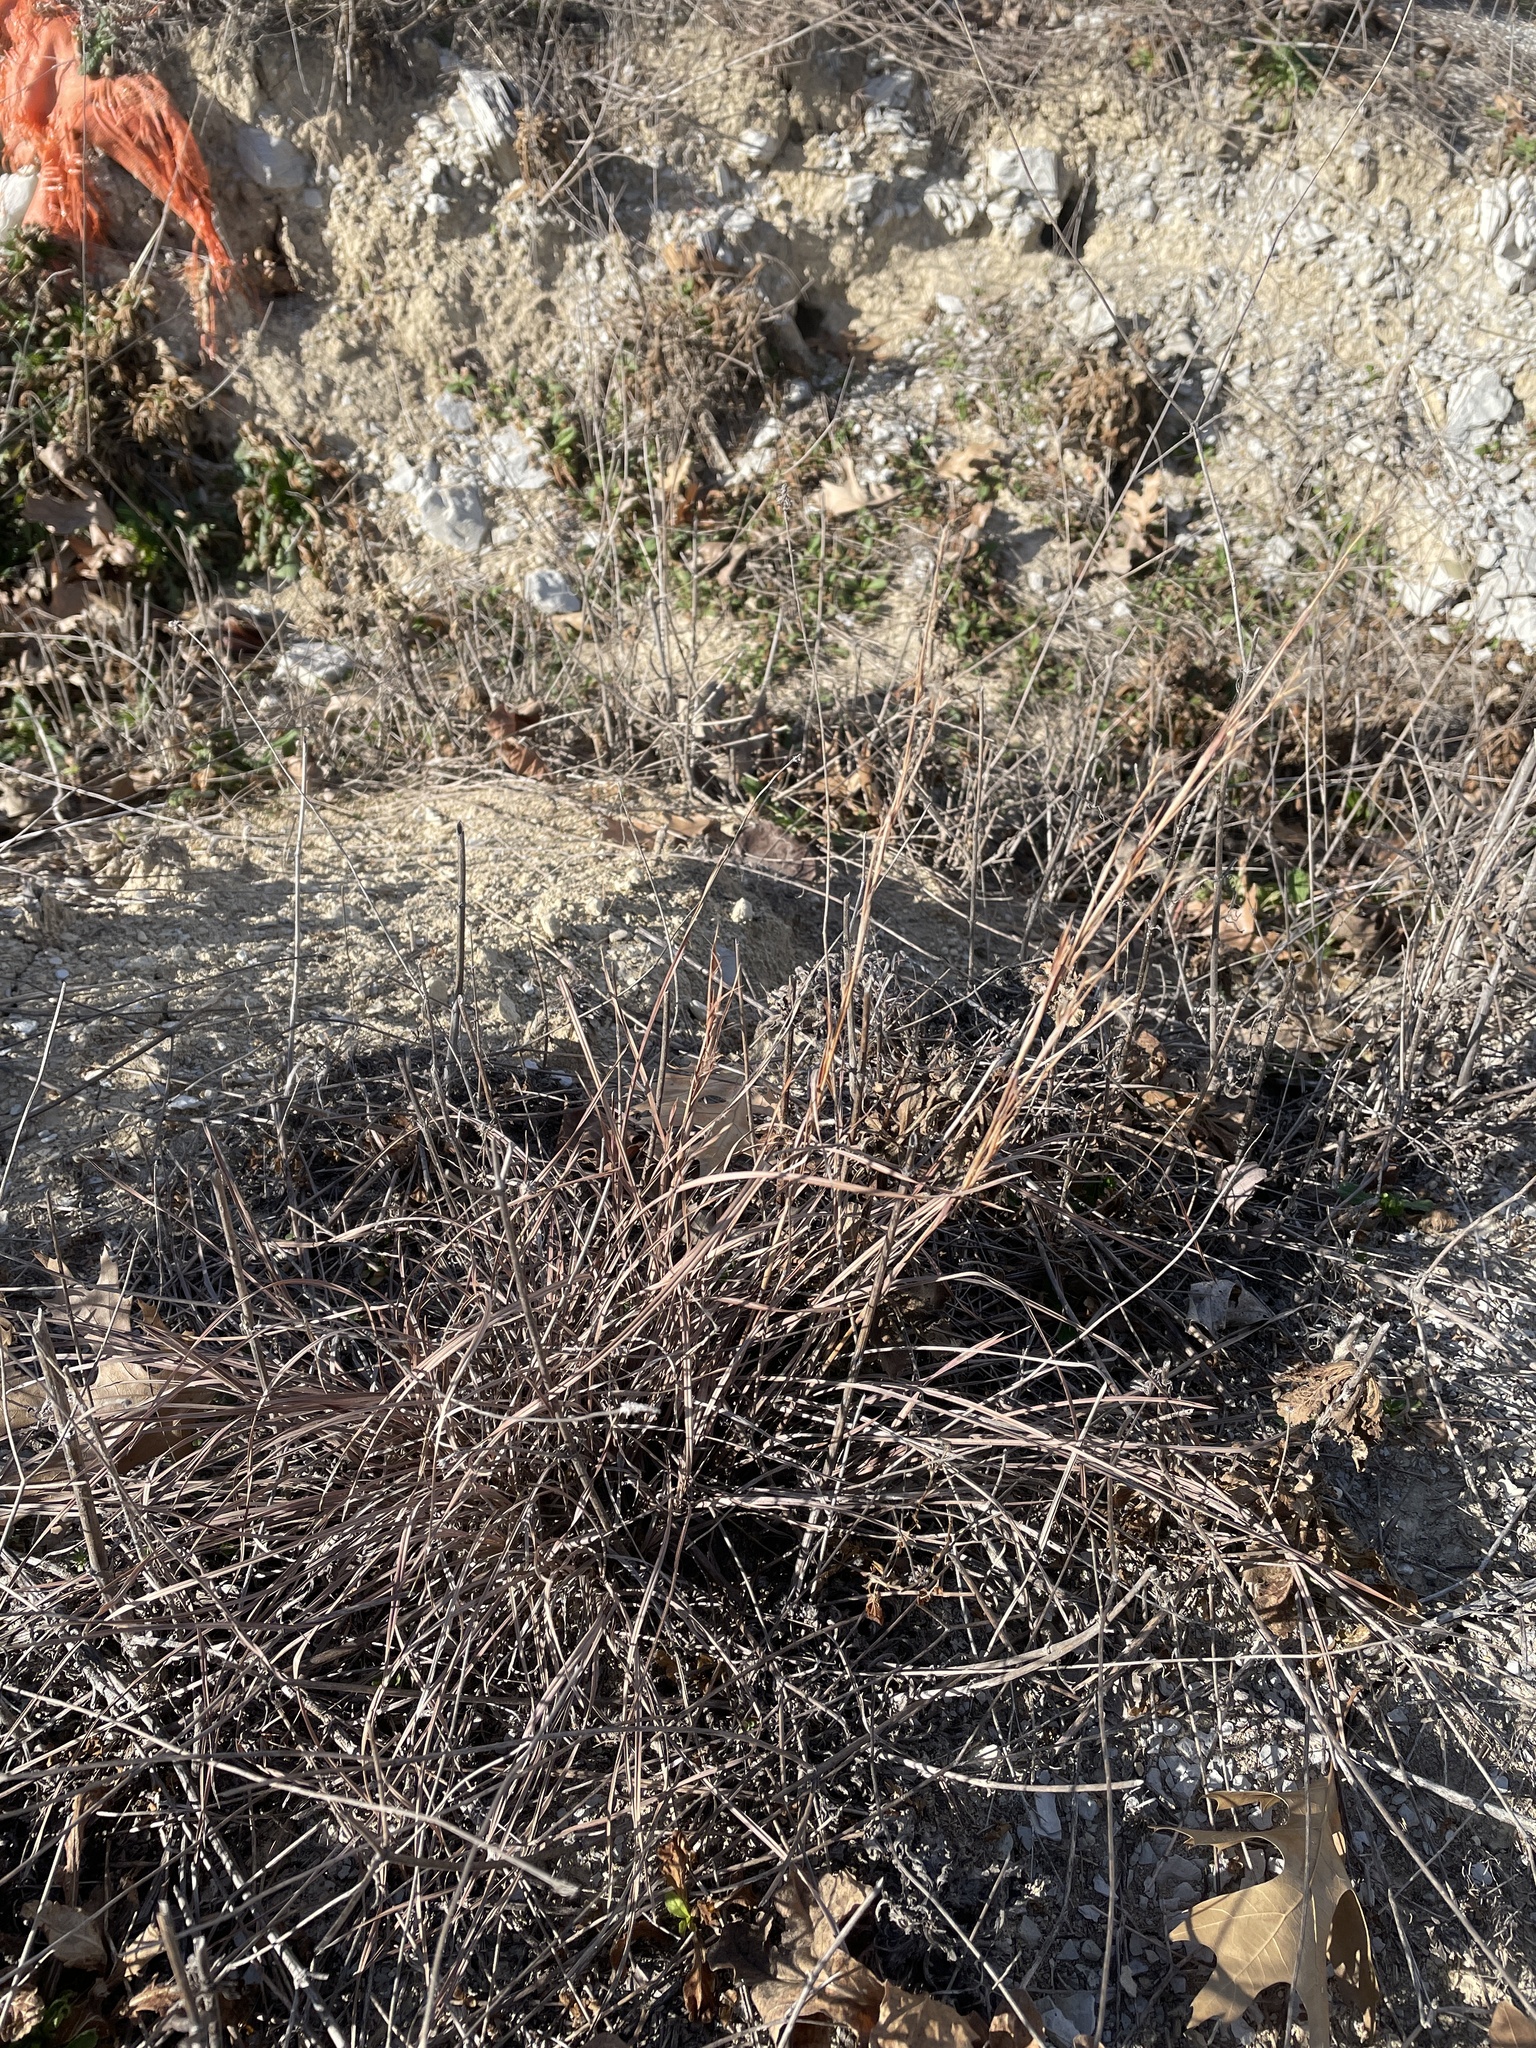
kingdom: Plantae
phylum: Tracheophyta
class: Liliopsida
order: Poales
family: Poaceae
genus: Schizachyrium
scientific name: Schizachyrium scoparium
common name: Little bluestem
